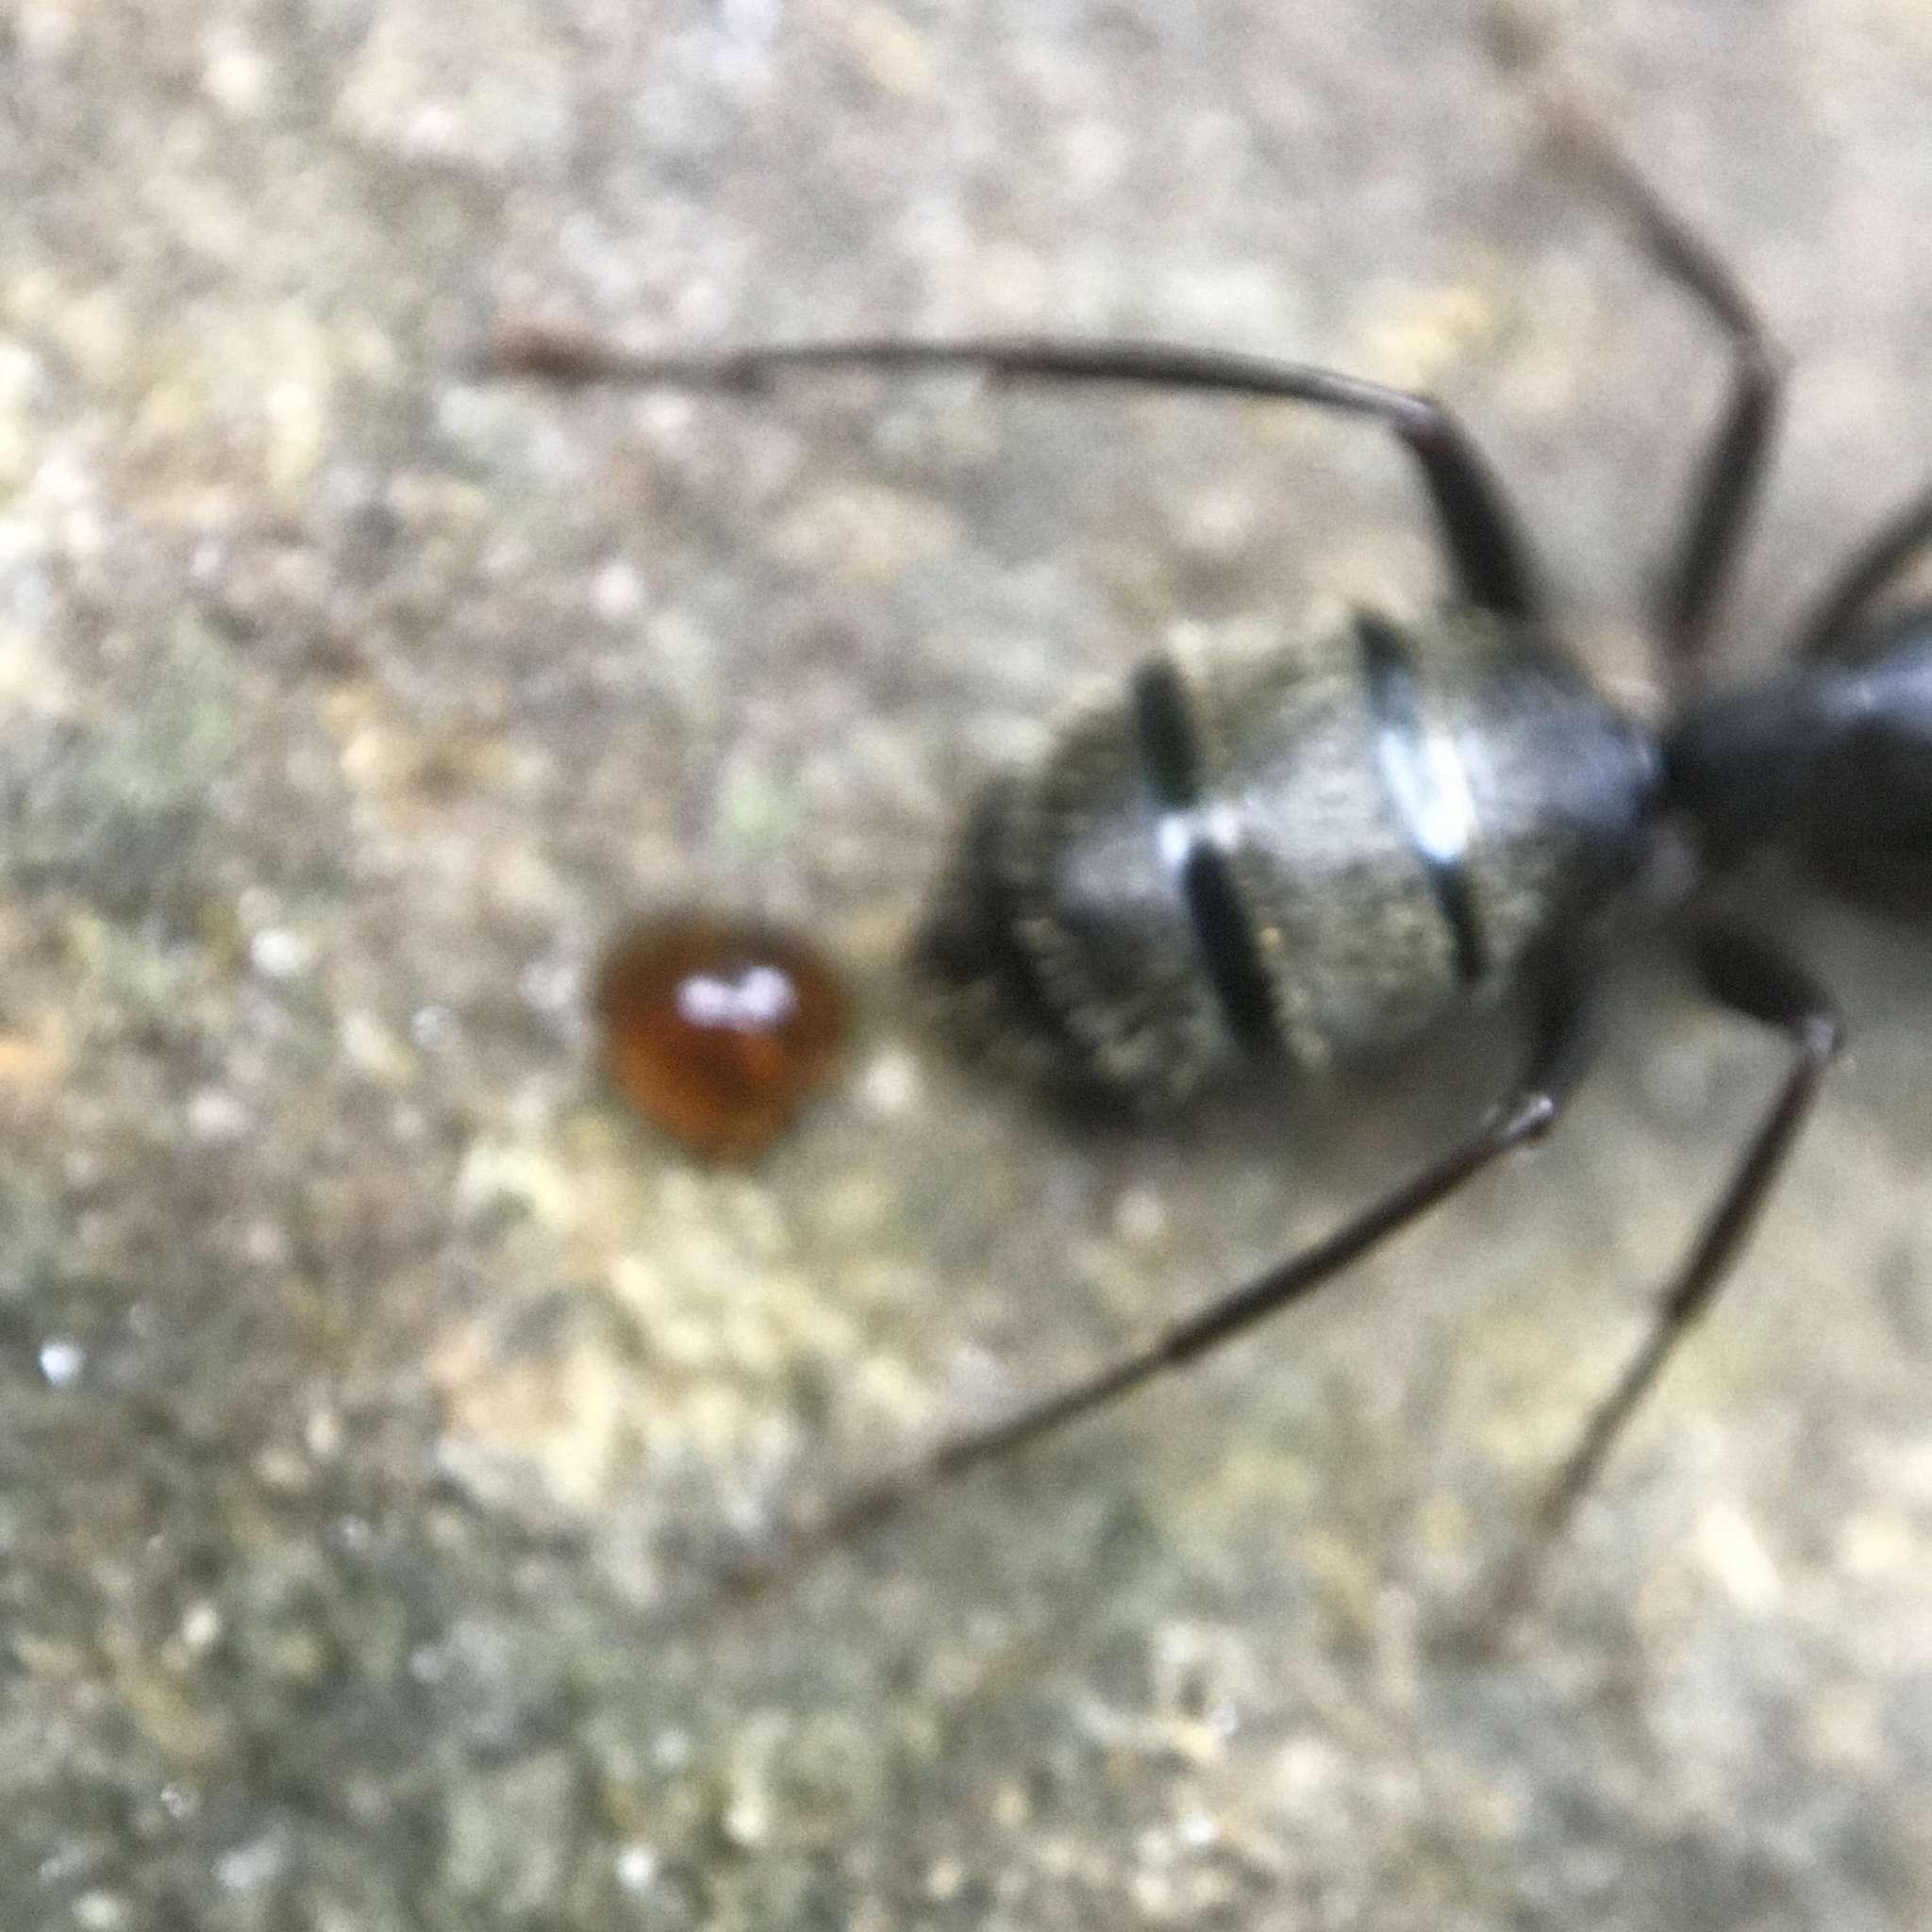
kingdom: Animalia
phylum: Arthropoda
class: Insecta
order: Hymenoptera
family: Formicidae
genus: Camponotus
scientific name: Camponotus pennsylvanicus
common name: Black carpenter ant
